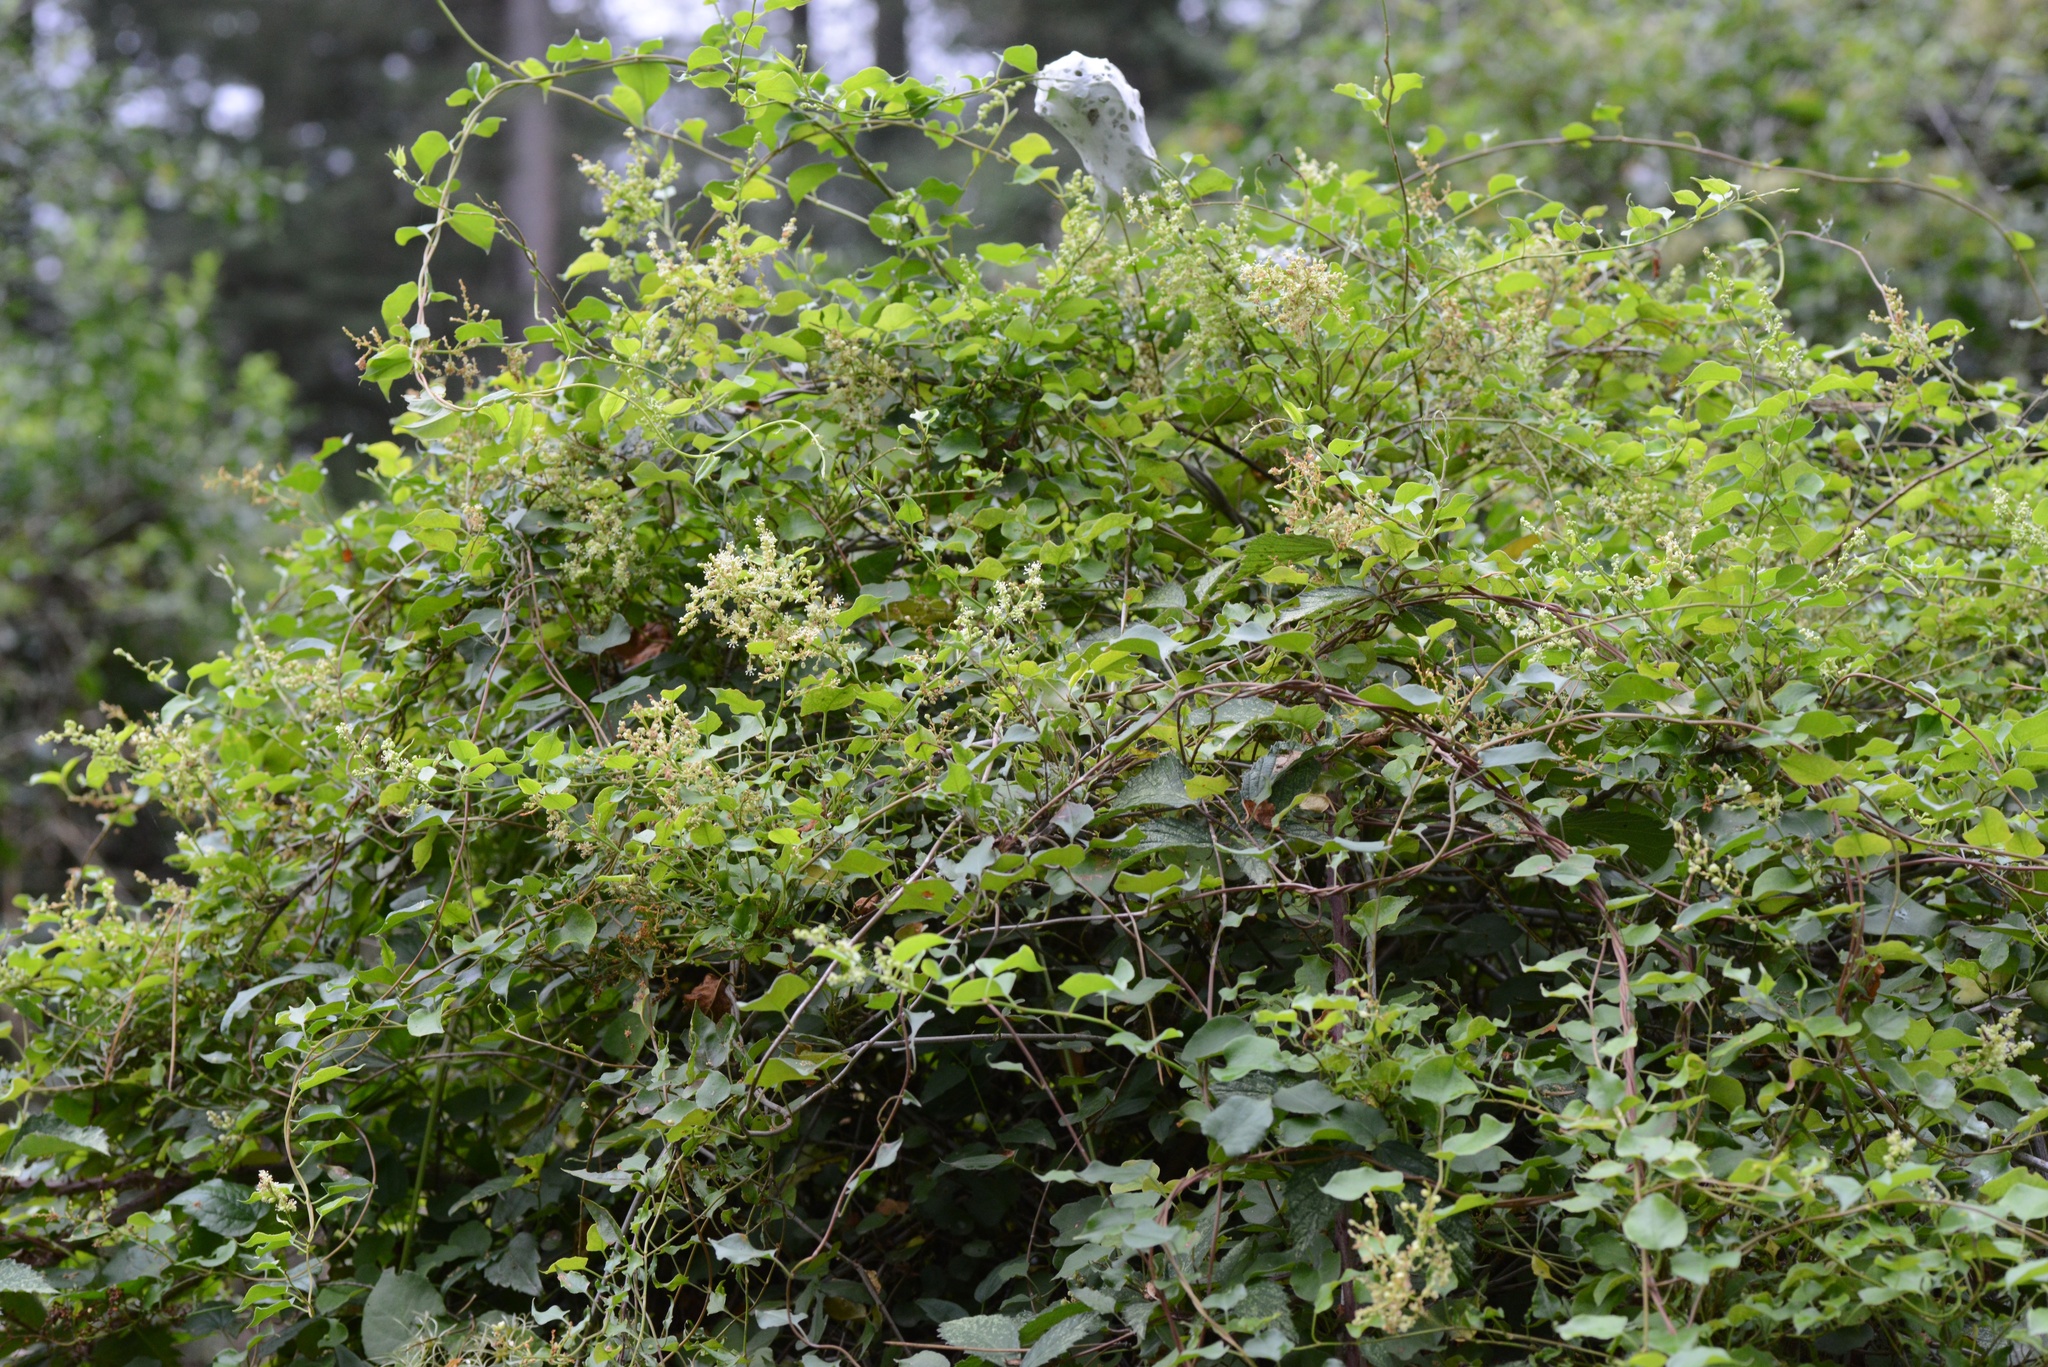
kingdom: Plantae
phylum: Tracheophyta
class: Magnoliopsida
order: Caryophyllales
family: Polygonaceae
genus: Muehlenbeckia
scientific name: Muehlenbeckia australis
